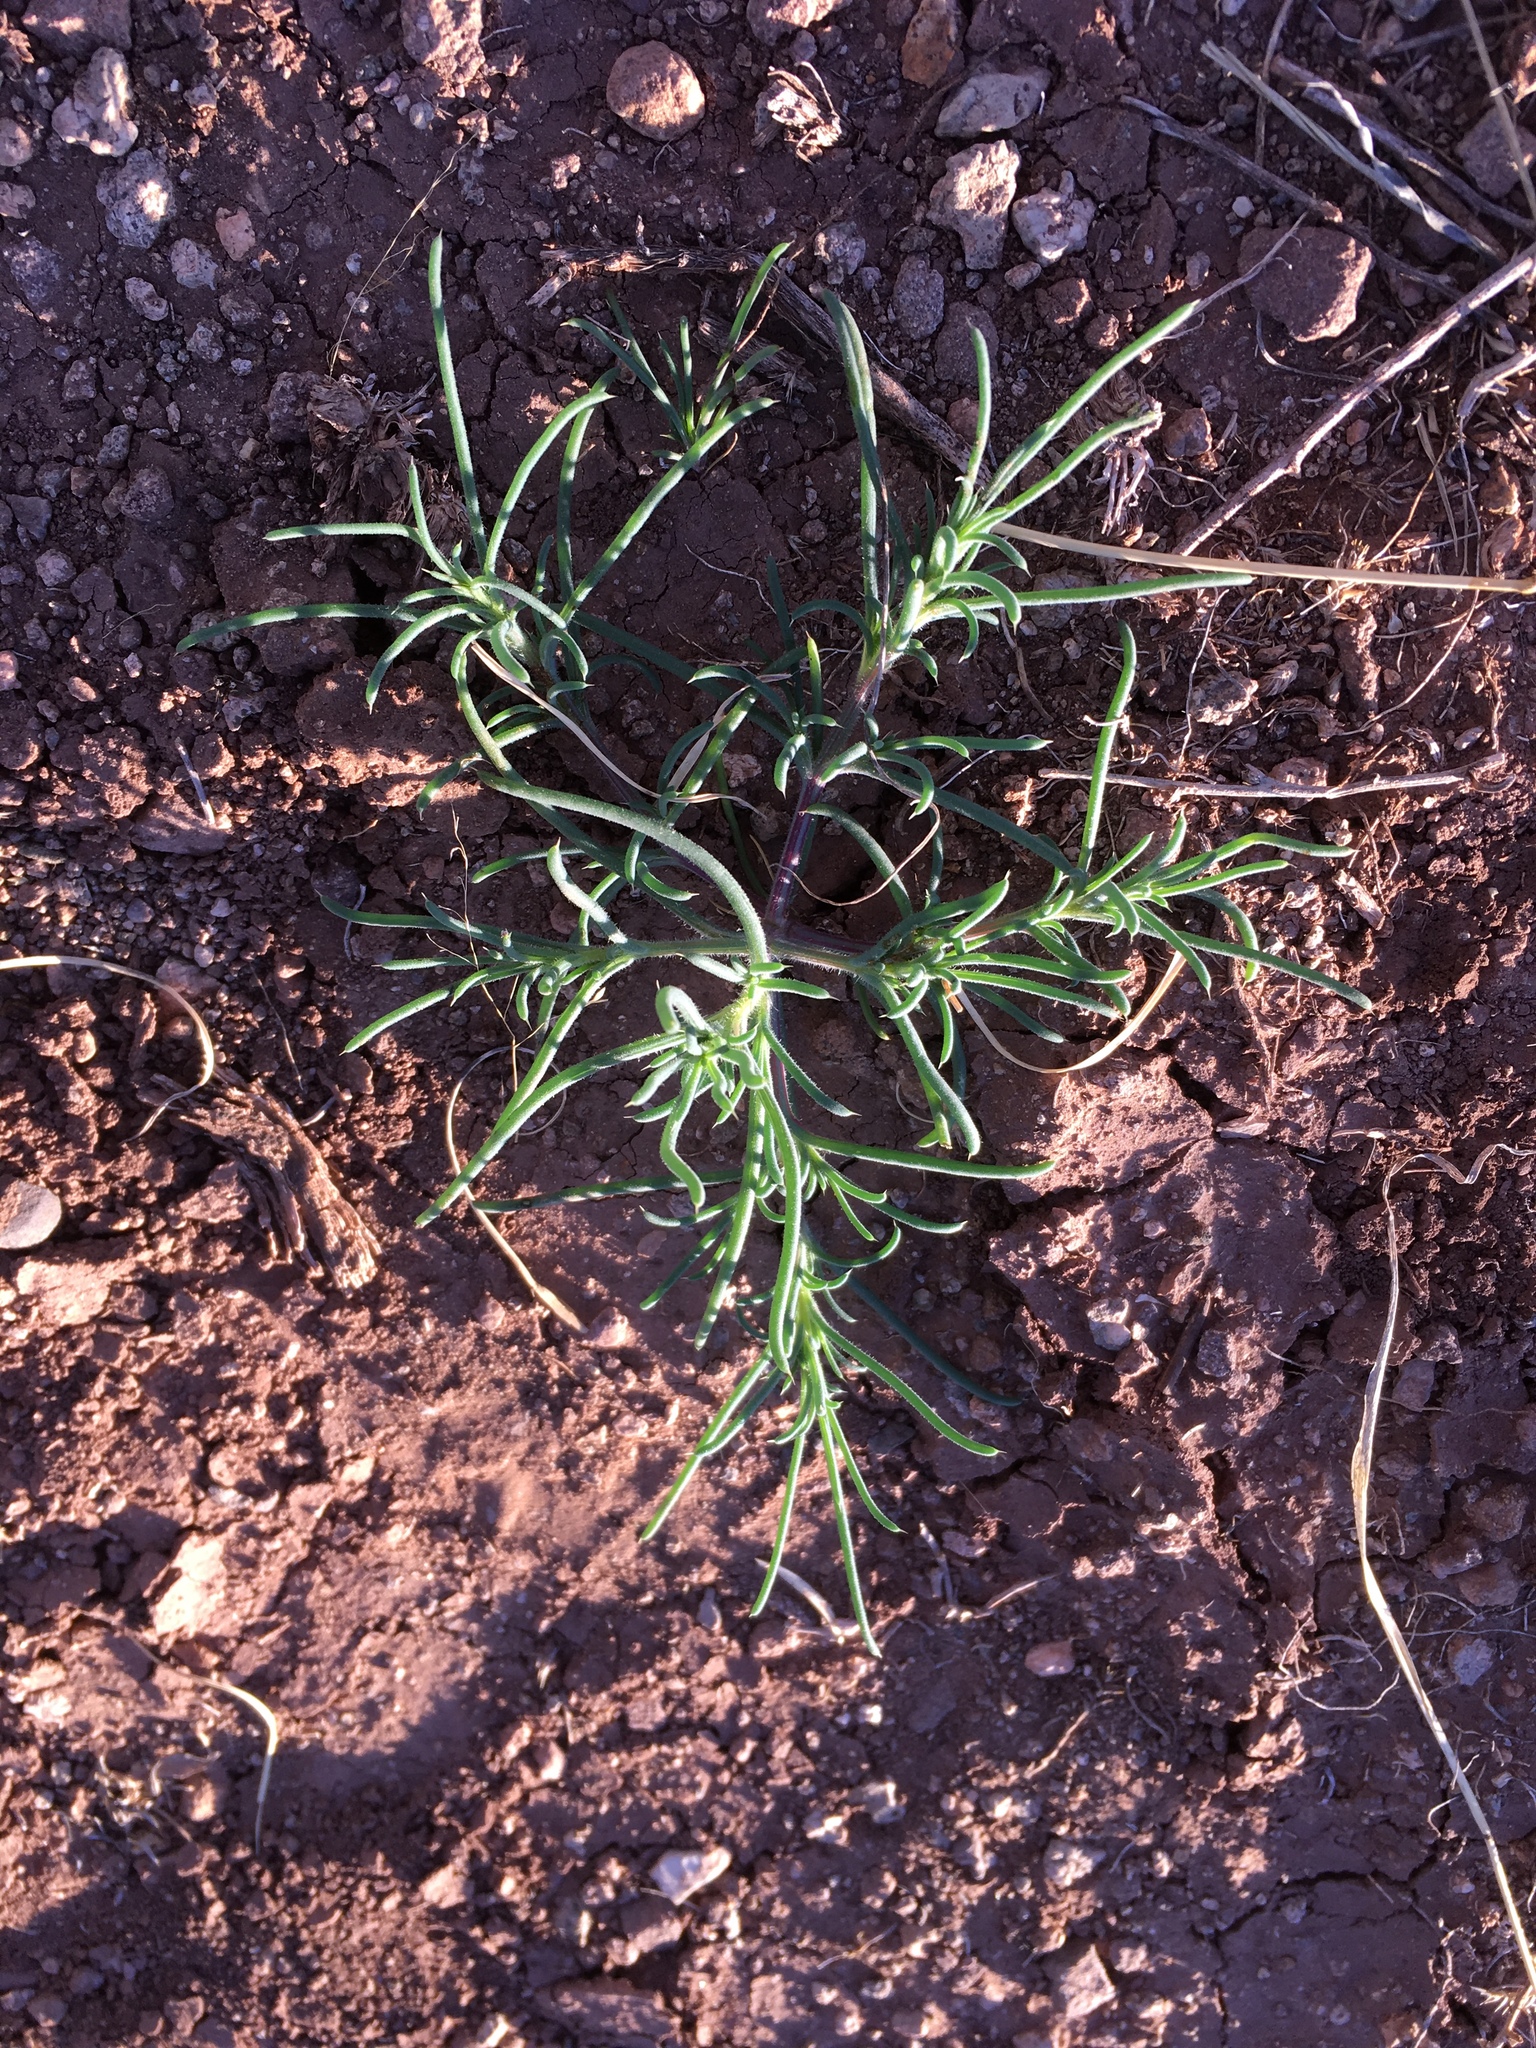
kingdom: Plantae
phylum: Tracheophyta
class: Magnoliopsida
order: Caryophyllales
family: Amaranthaceae
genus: Salsola
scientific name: Salsola tragus
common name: Prickly russian thistle
